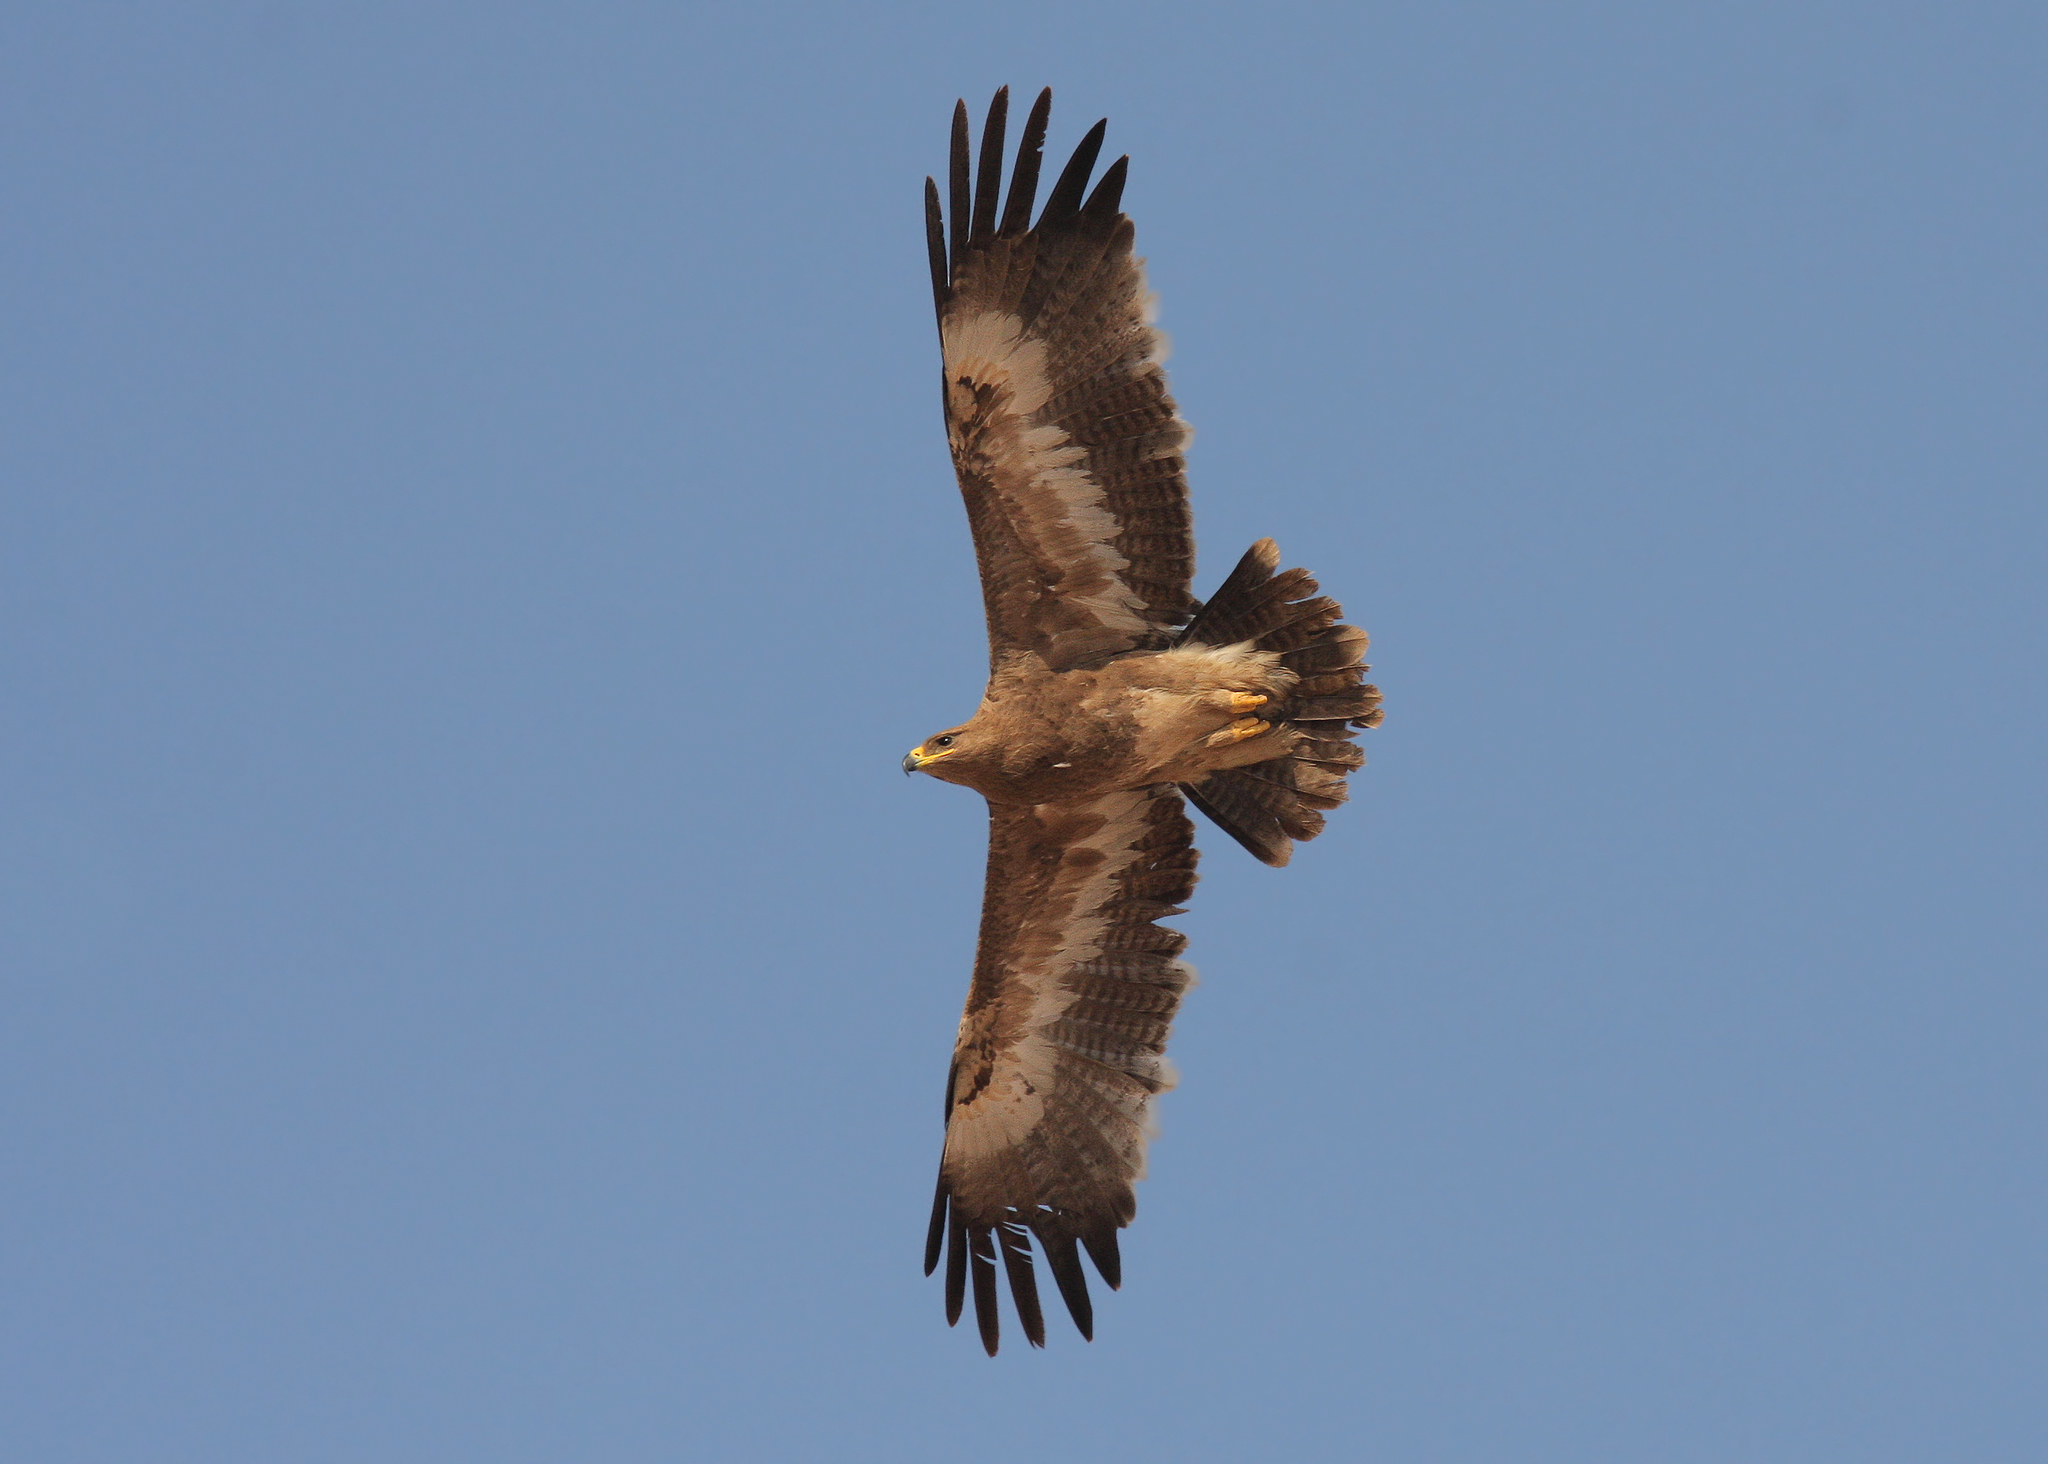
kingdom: Animalia
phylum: Chordata
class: Aves
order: Accipitriformes
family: Accipitridae
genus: Aquila
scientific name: Aquila nipalensis
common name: Steppe eagle
